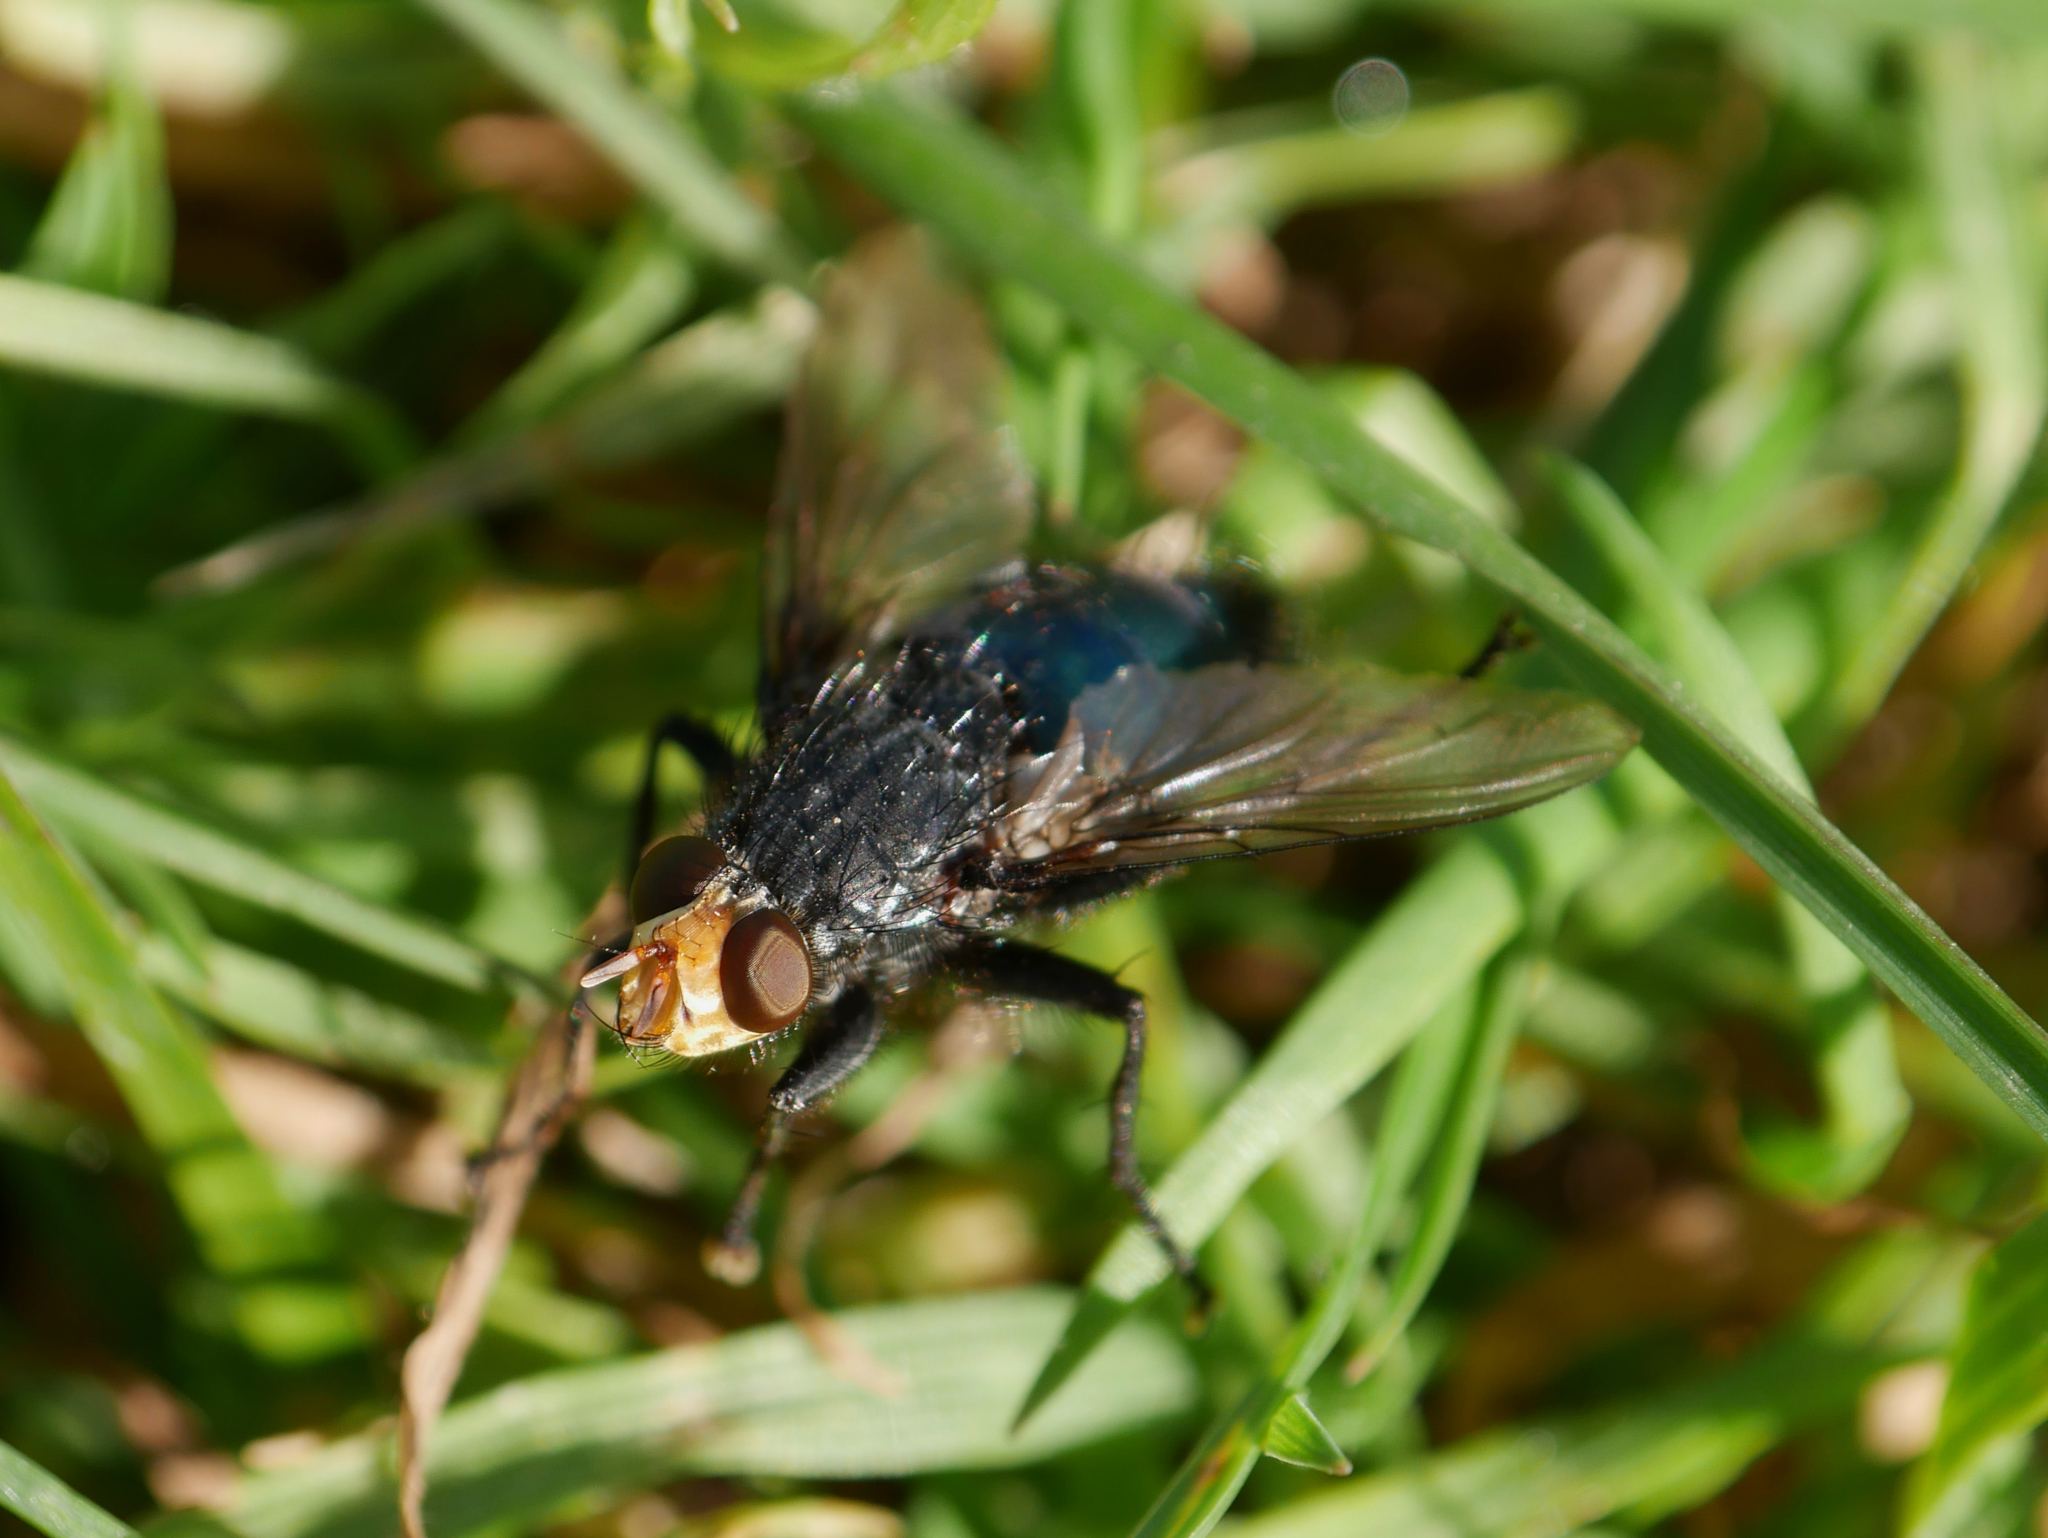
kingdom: Animalia
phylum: Arthropoda
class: Insecta
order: Diptera
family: Calliphoridae
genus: Cynomya
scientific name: Cynomya mortuorum
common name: Bluebottle blow fly
